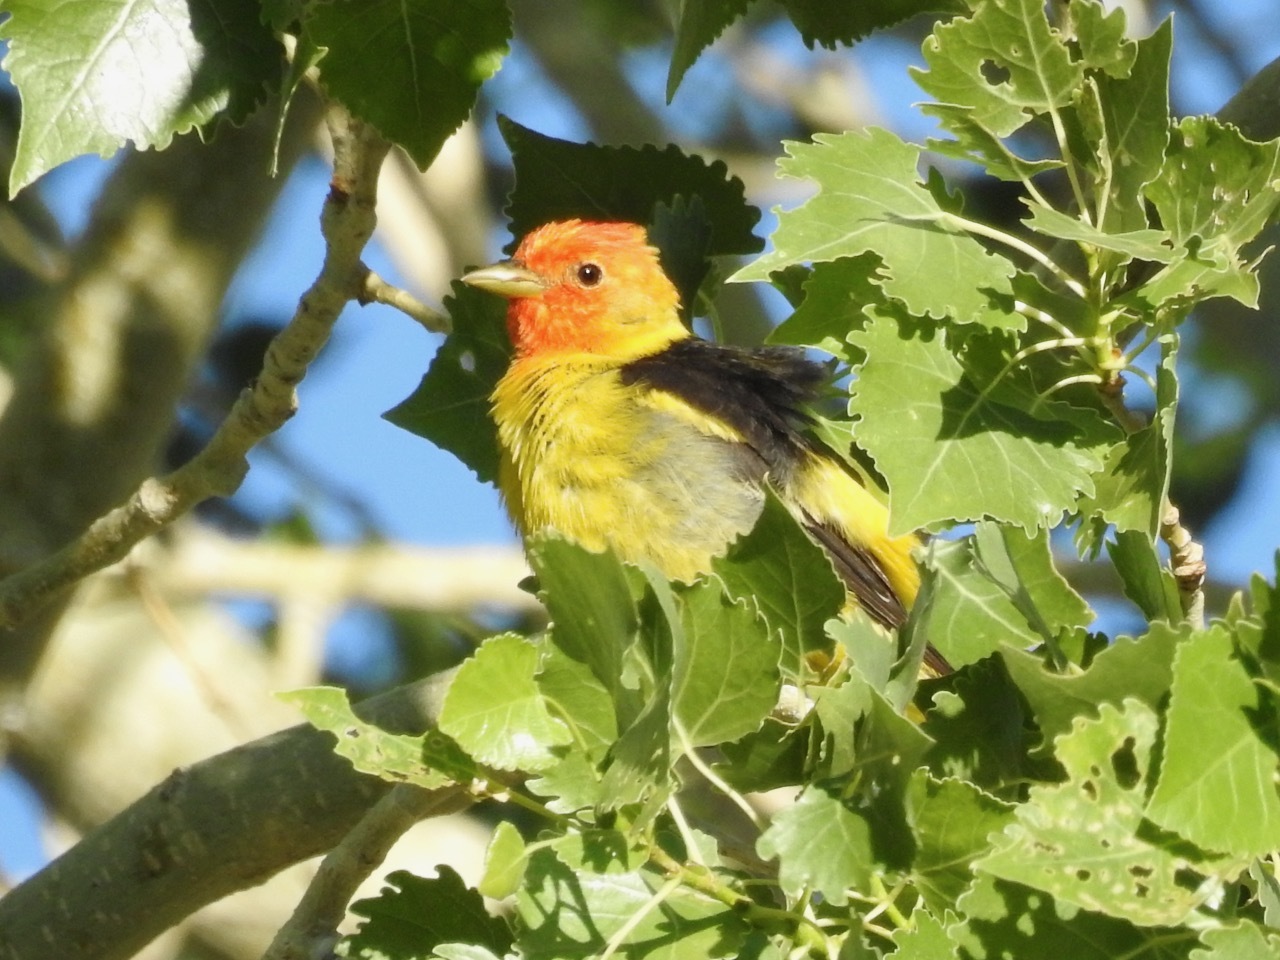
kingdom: Animalia
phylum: Chordata
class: Aves
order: Passeriformes
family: Cardinalidae
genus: Piranga
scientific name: Piranga ludoviciana
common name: Western tanager
